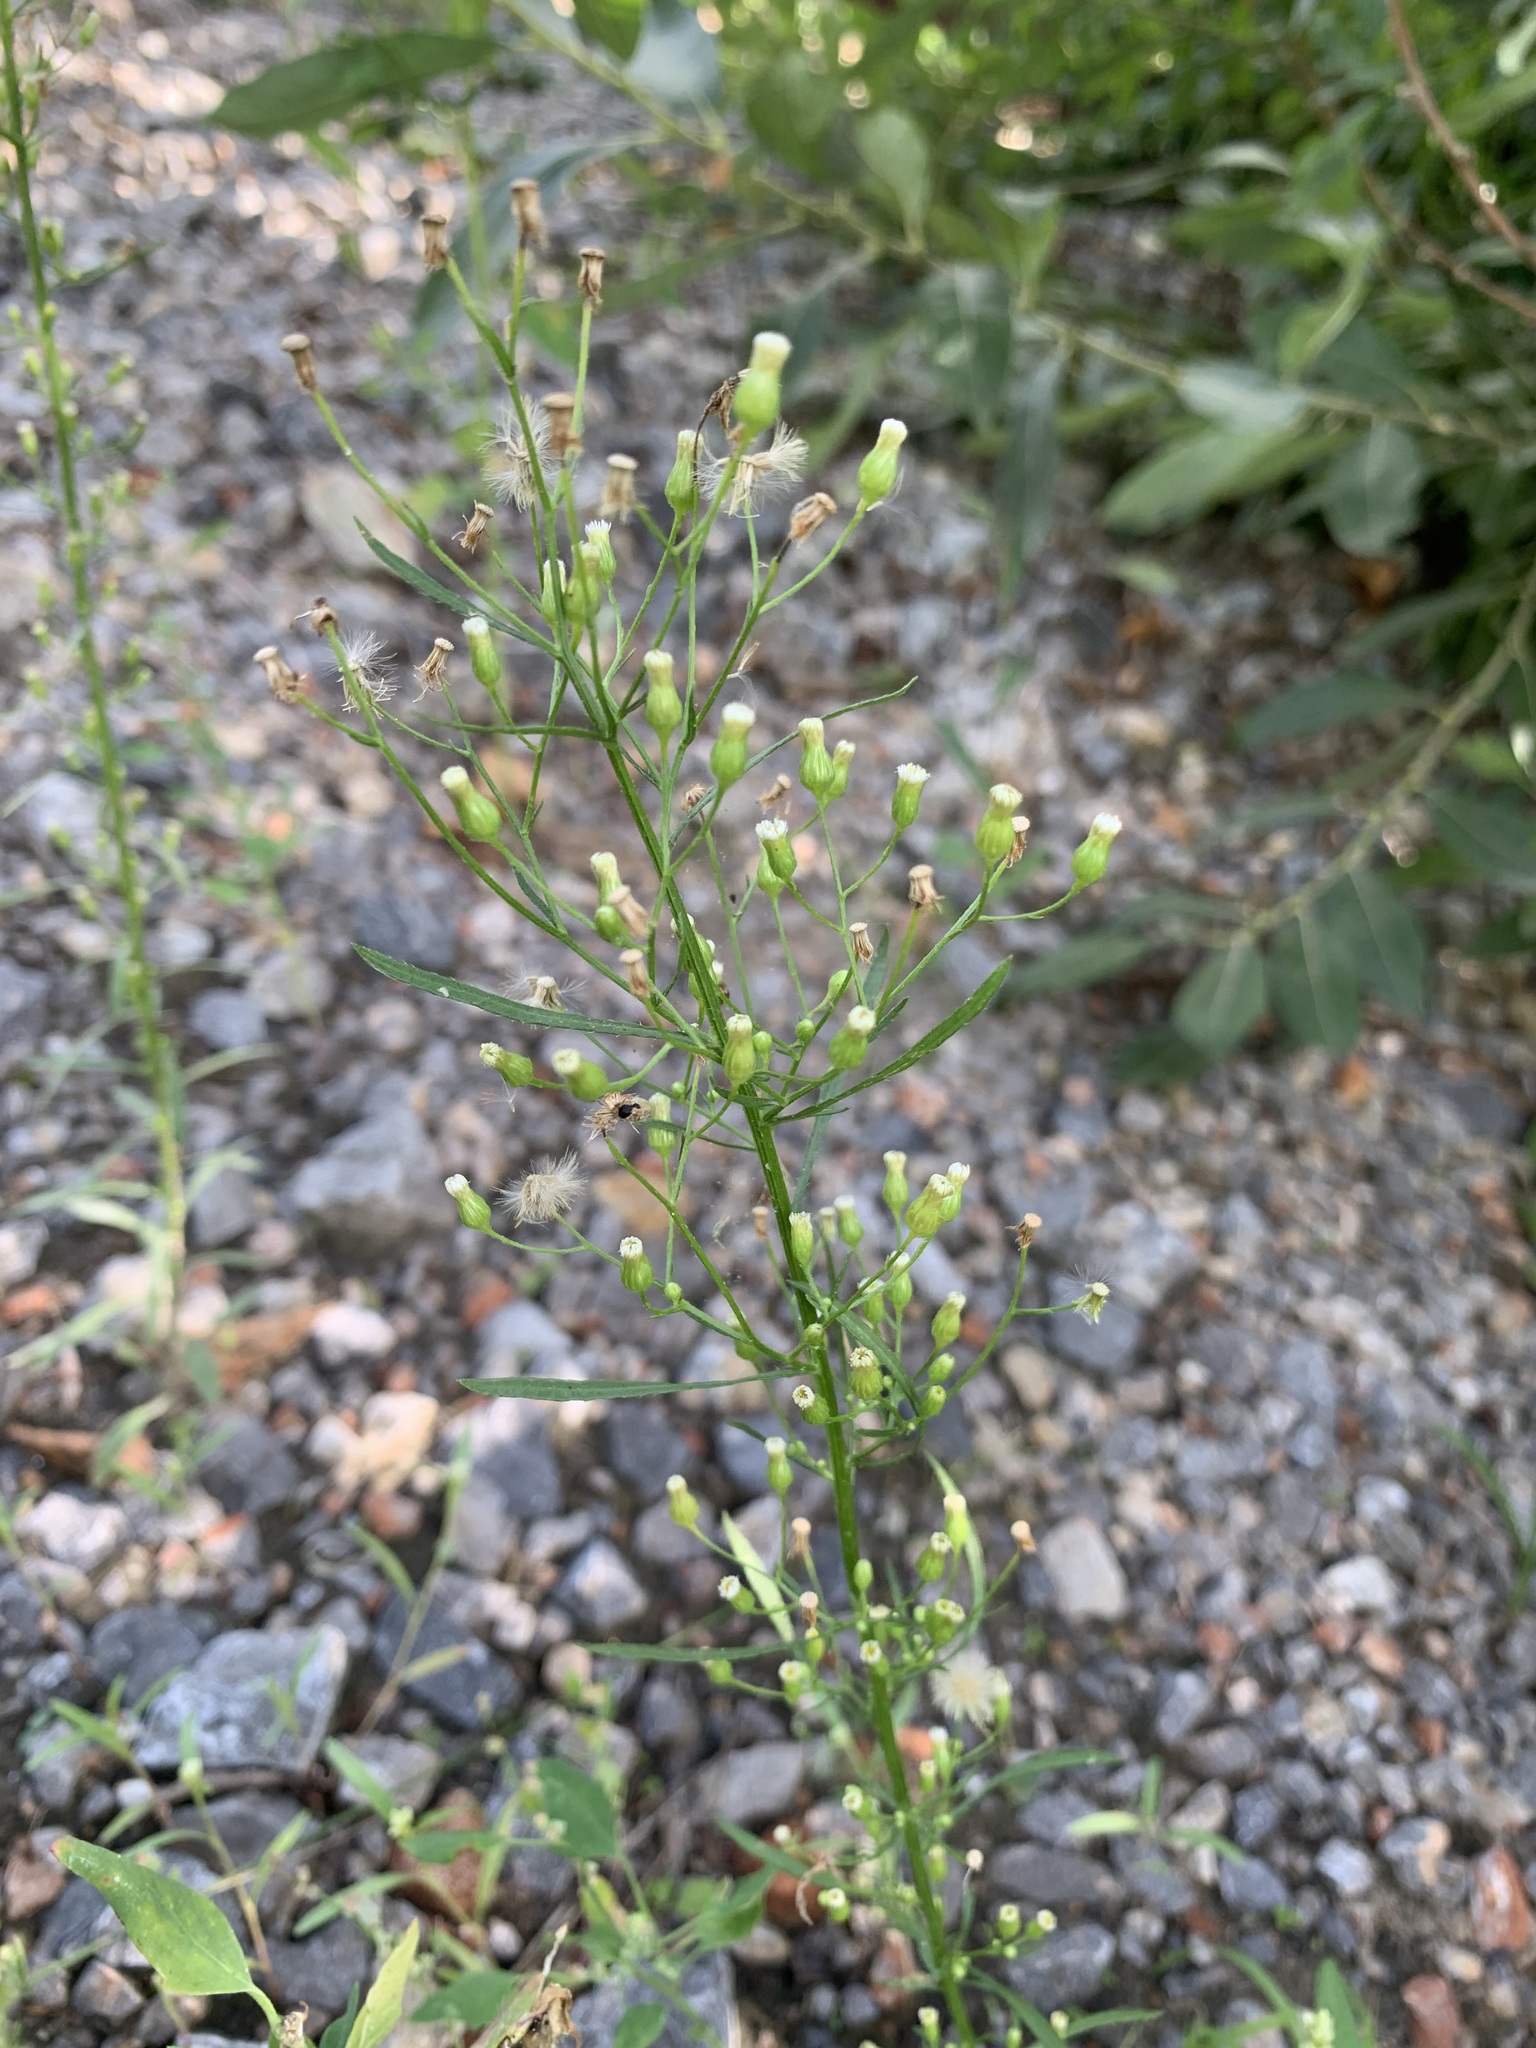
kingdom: Plantae
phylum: Tracheophyta
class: Magnoliopsida
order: Asterales
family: Asteraceae
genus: Erigeron
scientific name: Erigeron canadensis
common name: Canadian fleabane
